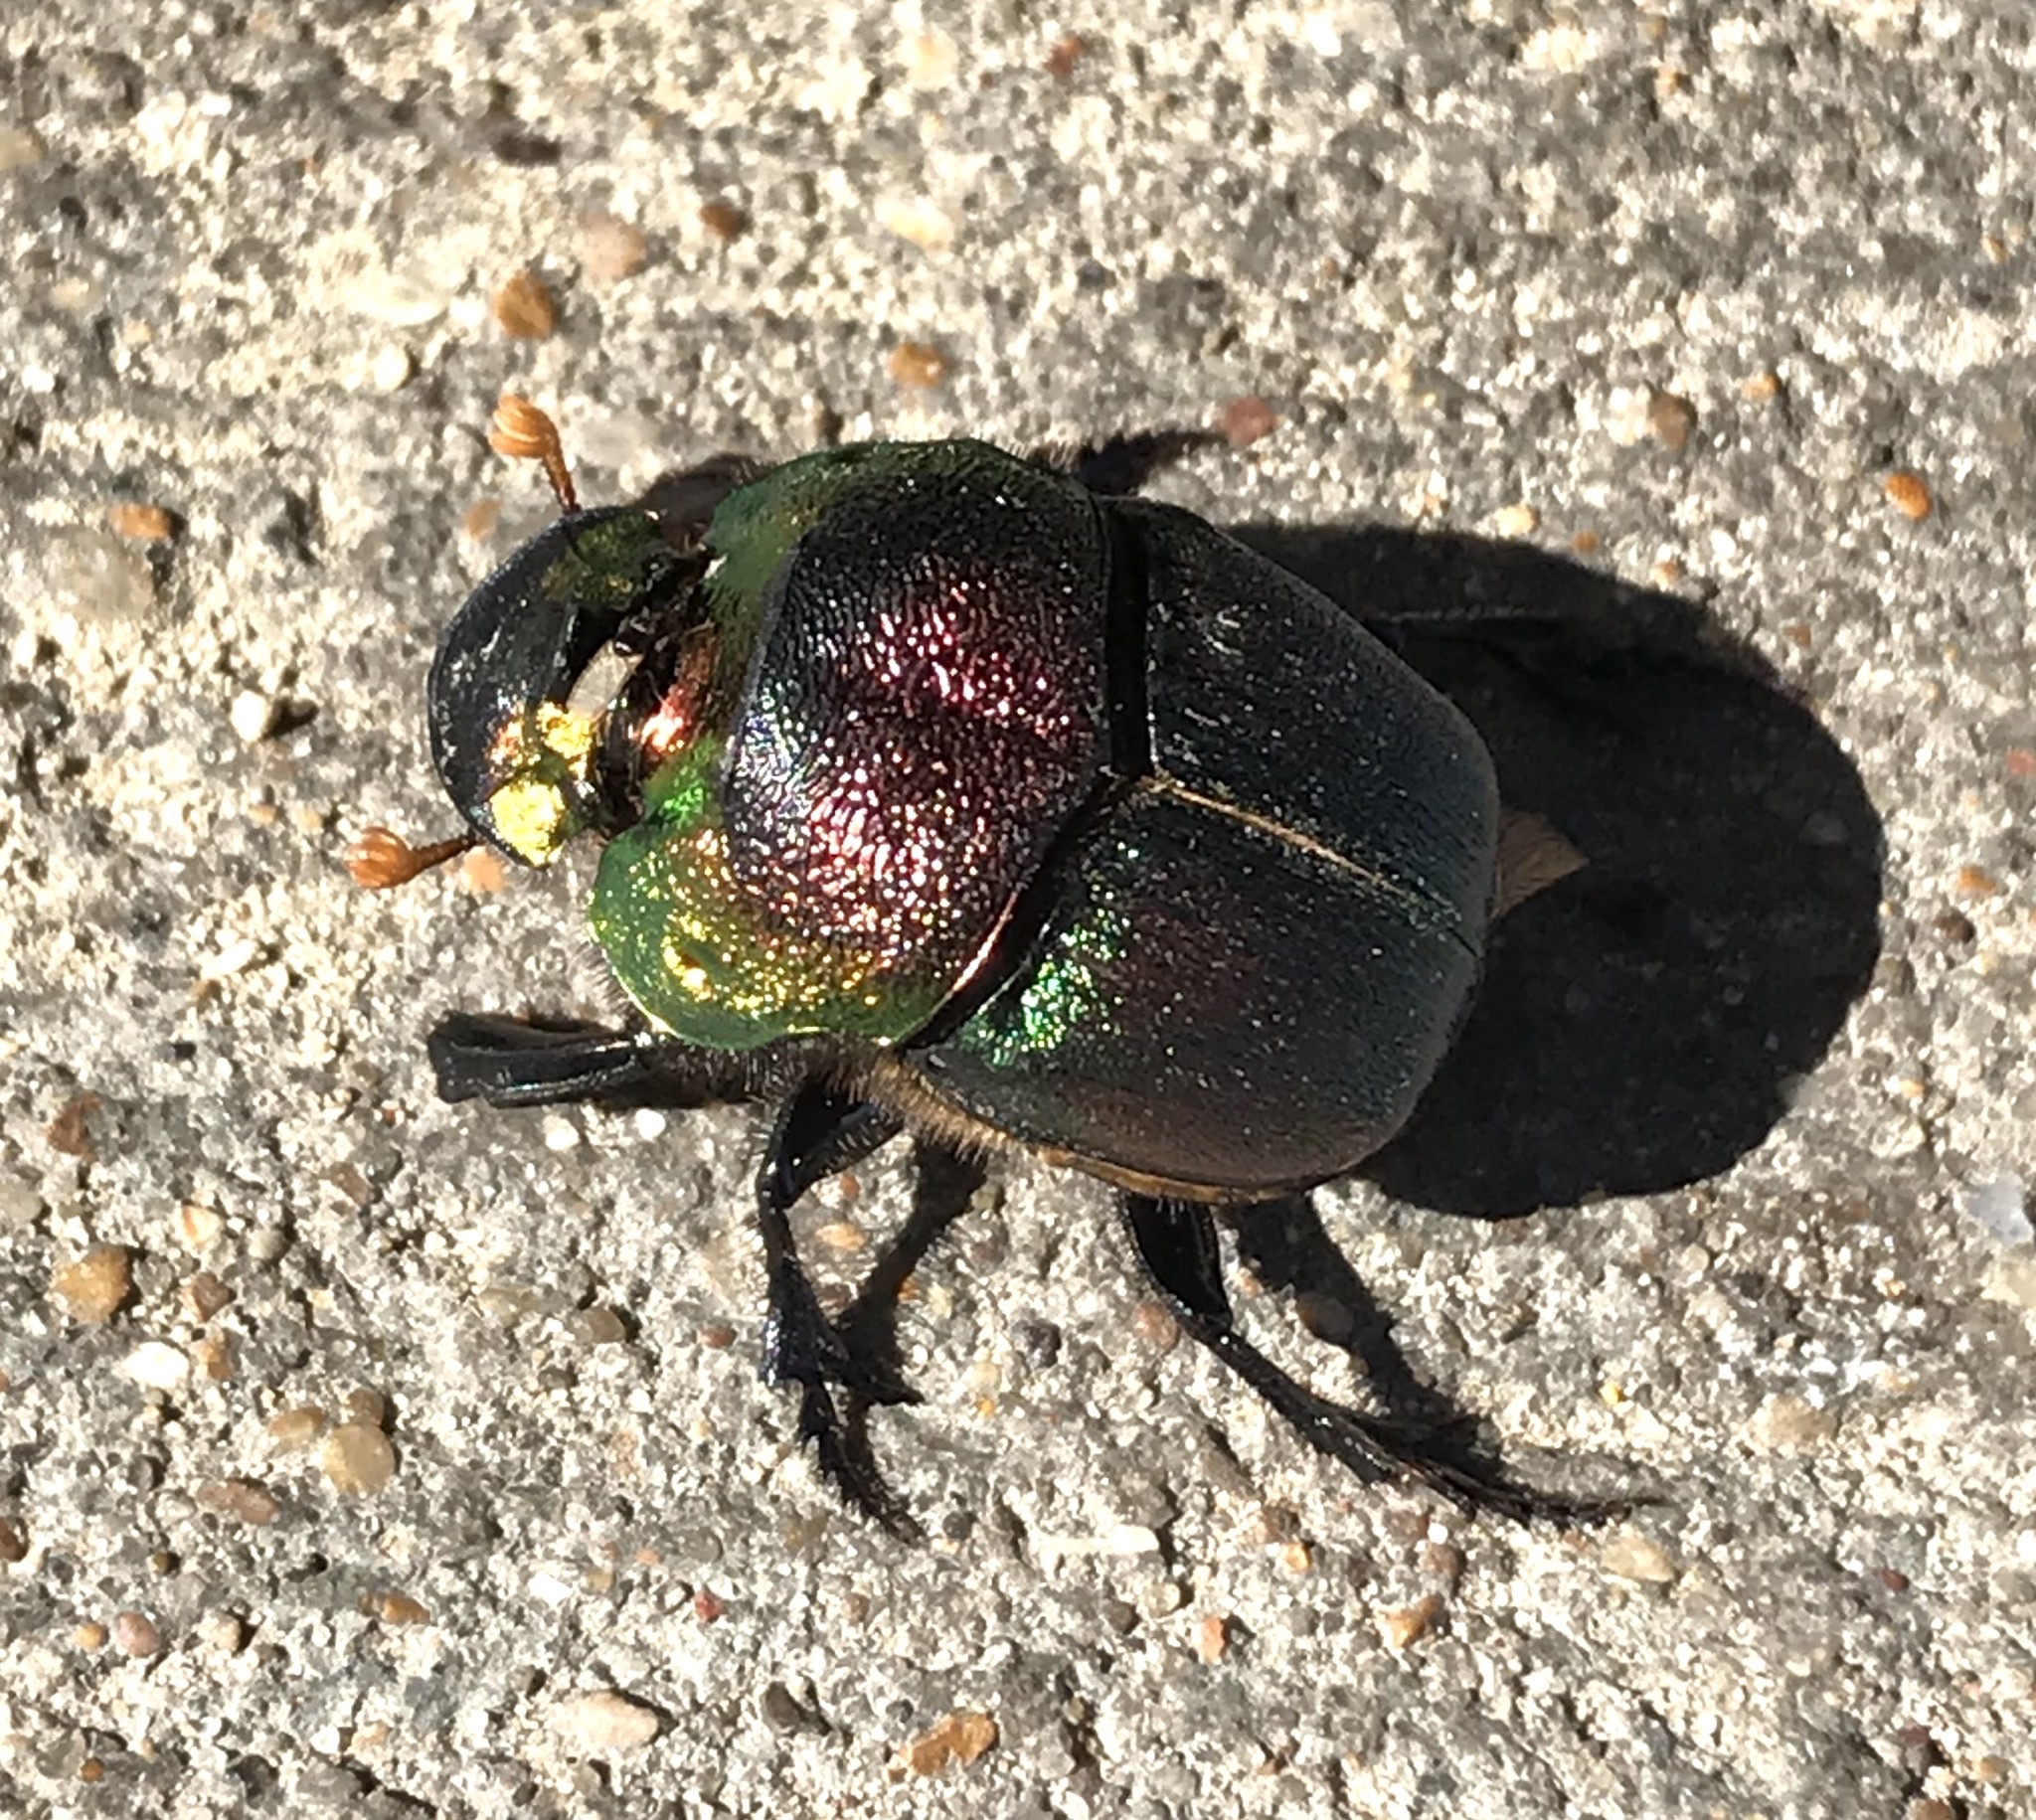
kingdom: Animalia
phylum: Arthropoda
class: Insecta
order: Coleoptera
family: Scarabaeidae
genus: Phanaeus
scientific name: Phanaeus vindex
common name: Rainbow scarab
